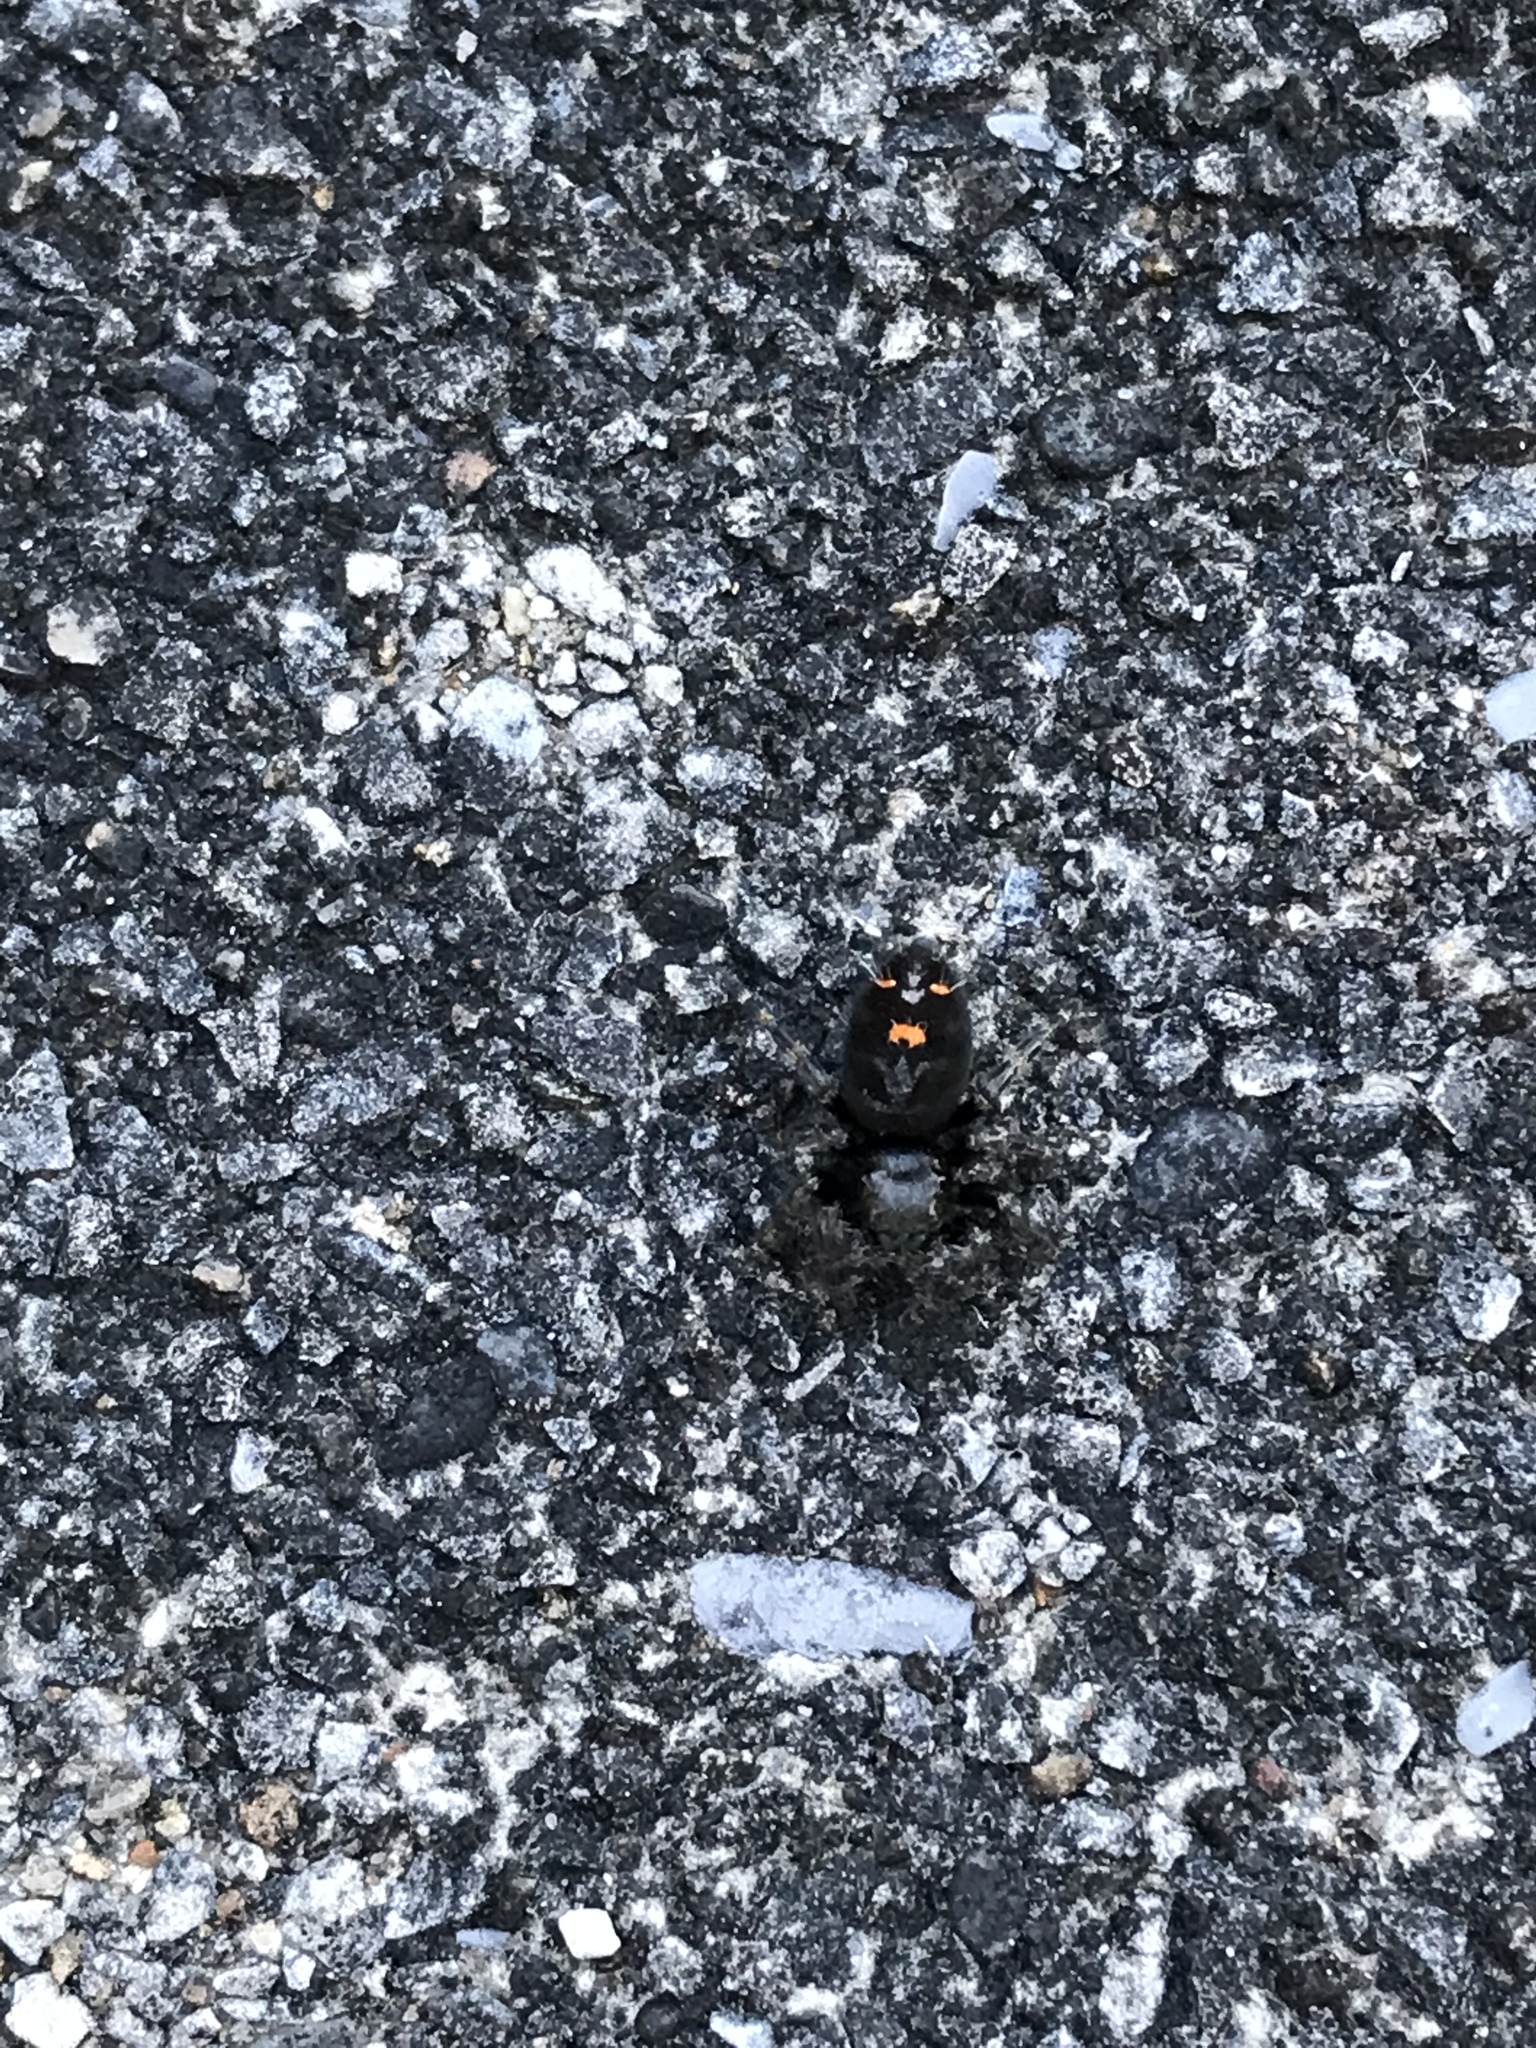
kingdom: Animalia
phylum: Arthropoda
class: Arachnida
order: Araneae
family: Salticidae
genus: Phidippus
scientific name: Phidippus audax
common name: Bold jumper
